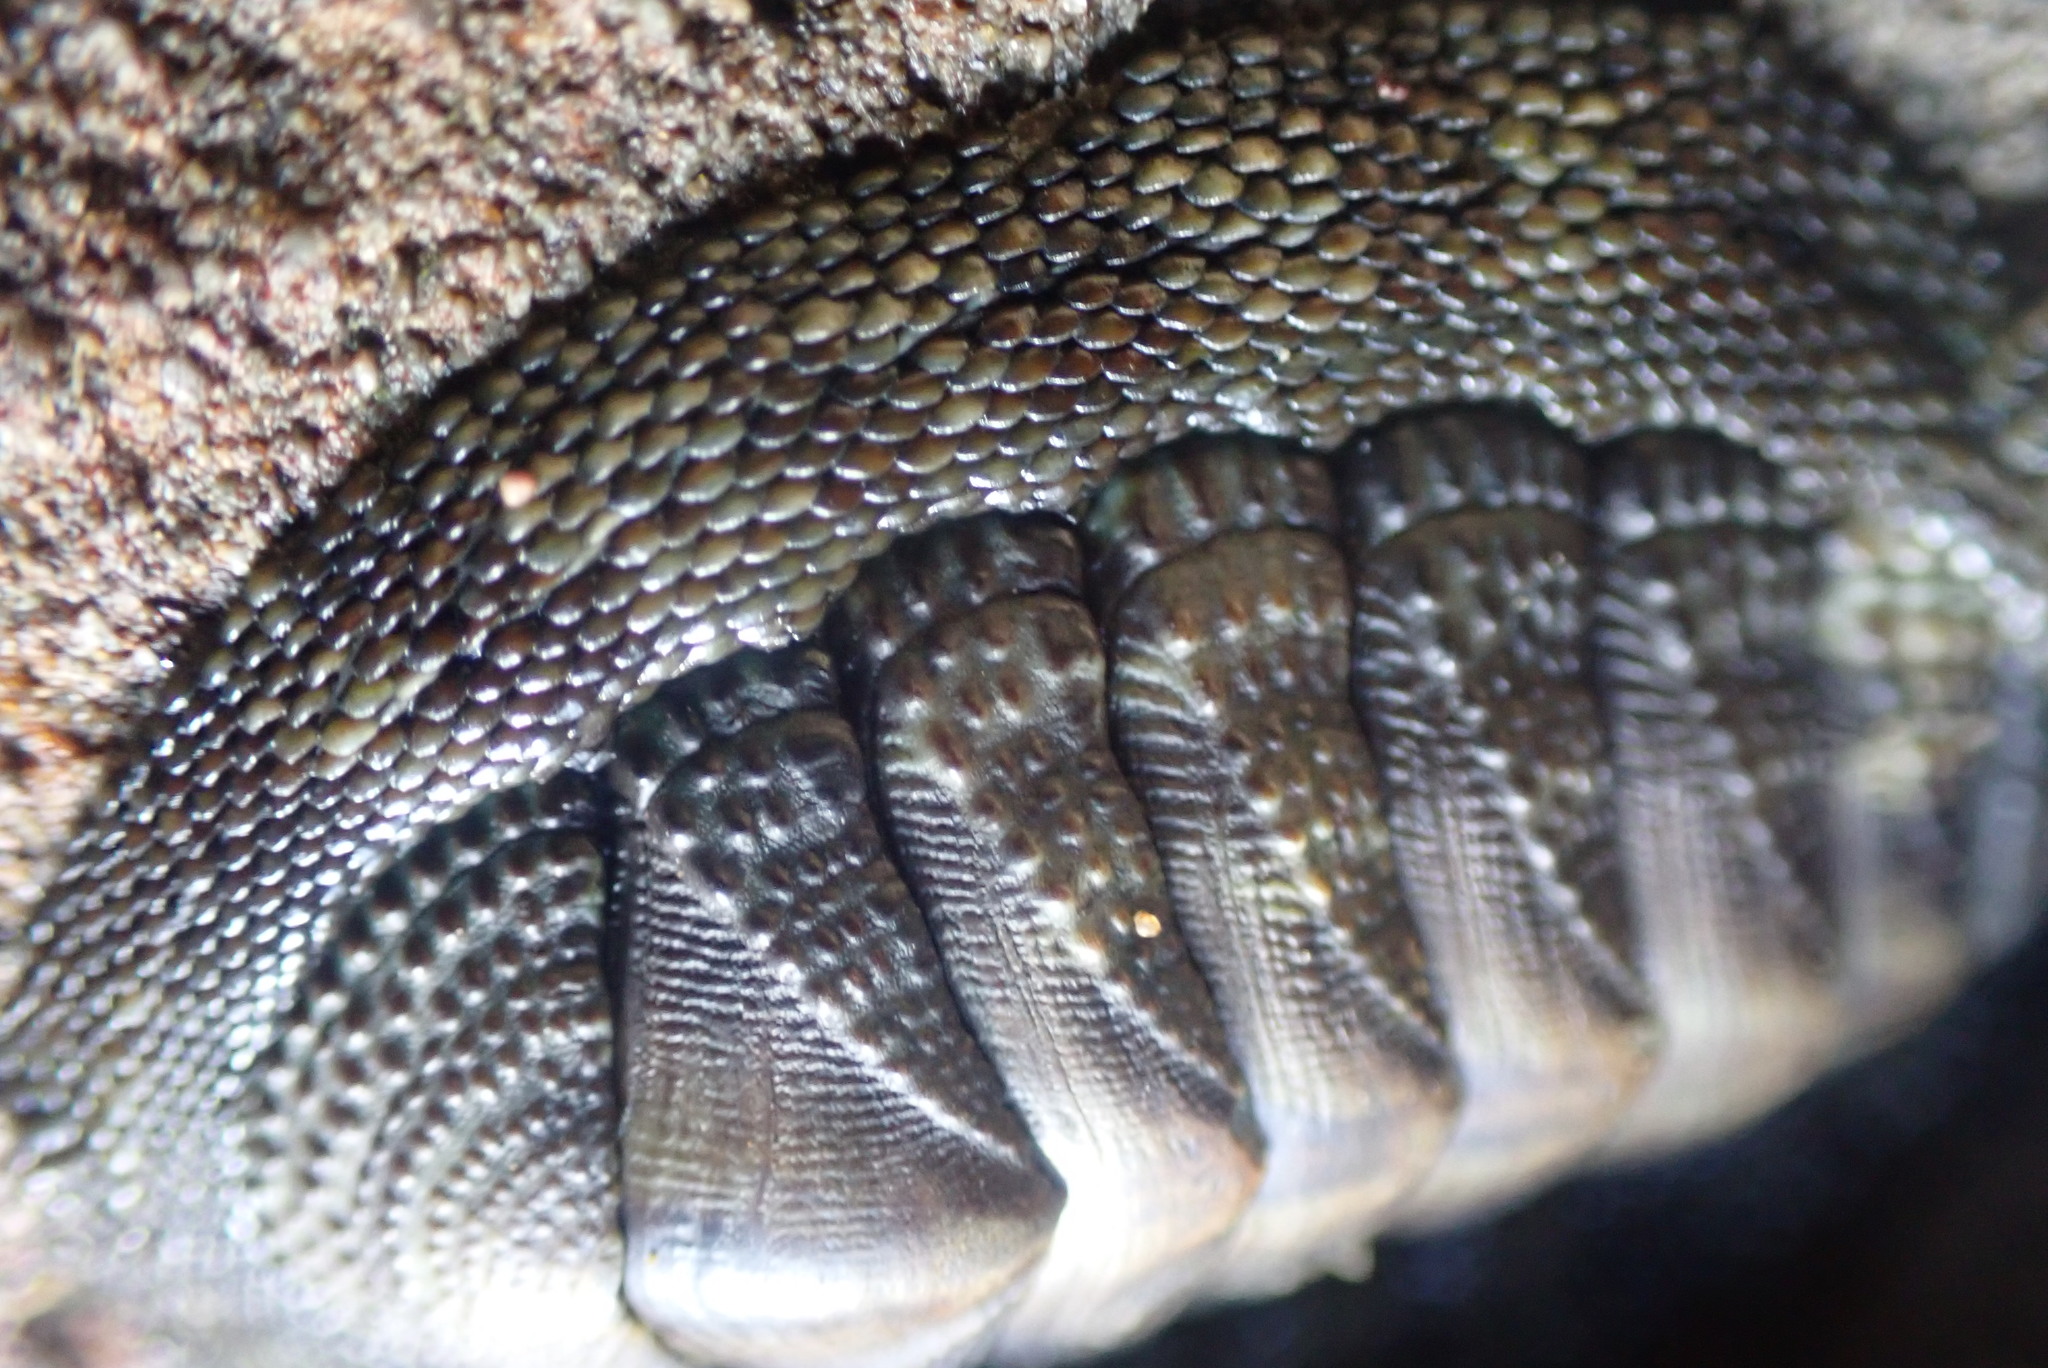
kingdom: Animalia
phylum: Mollusca
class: Polyplacophora
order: Chitonida
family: Chitonidae
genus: Sypharochiton
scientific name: Sypharochiton pelliserpentis
